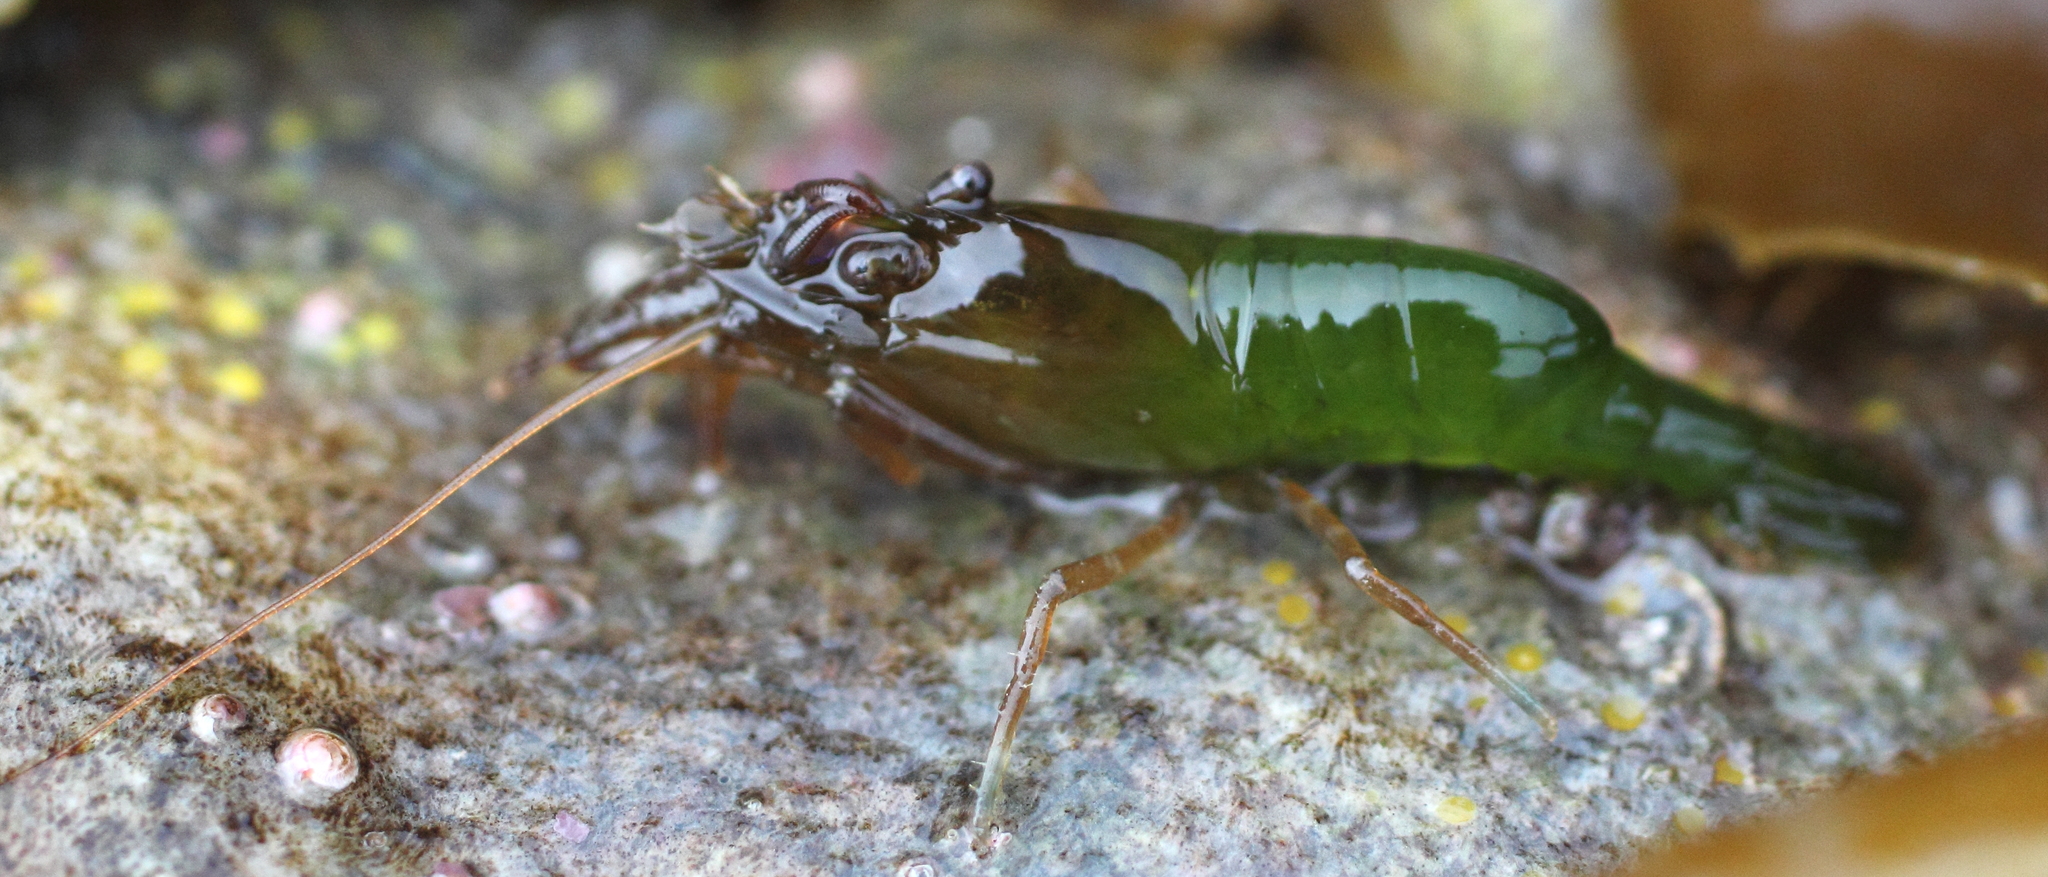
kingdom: Animalia
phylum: Arthropoda
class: Malacostraca
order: Decapoda
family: Thoridae
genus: Heptacarpus
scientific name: Heptacarpus brevirostris
